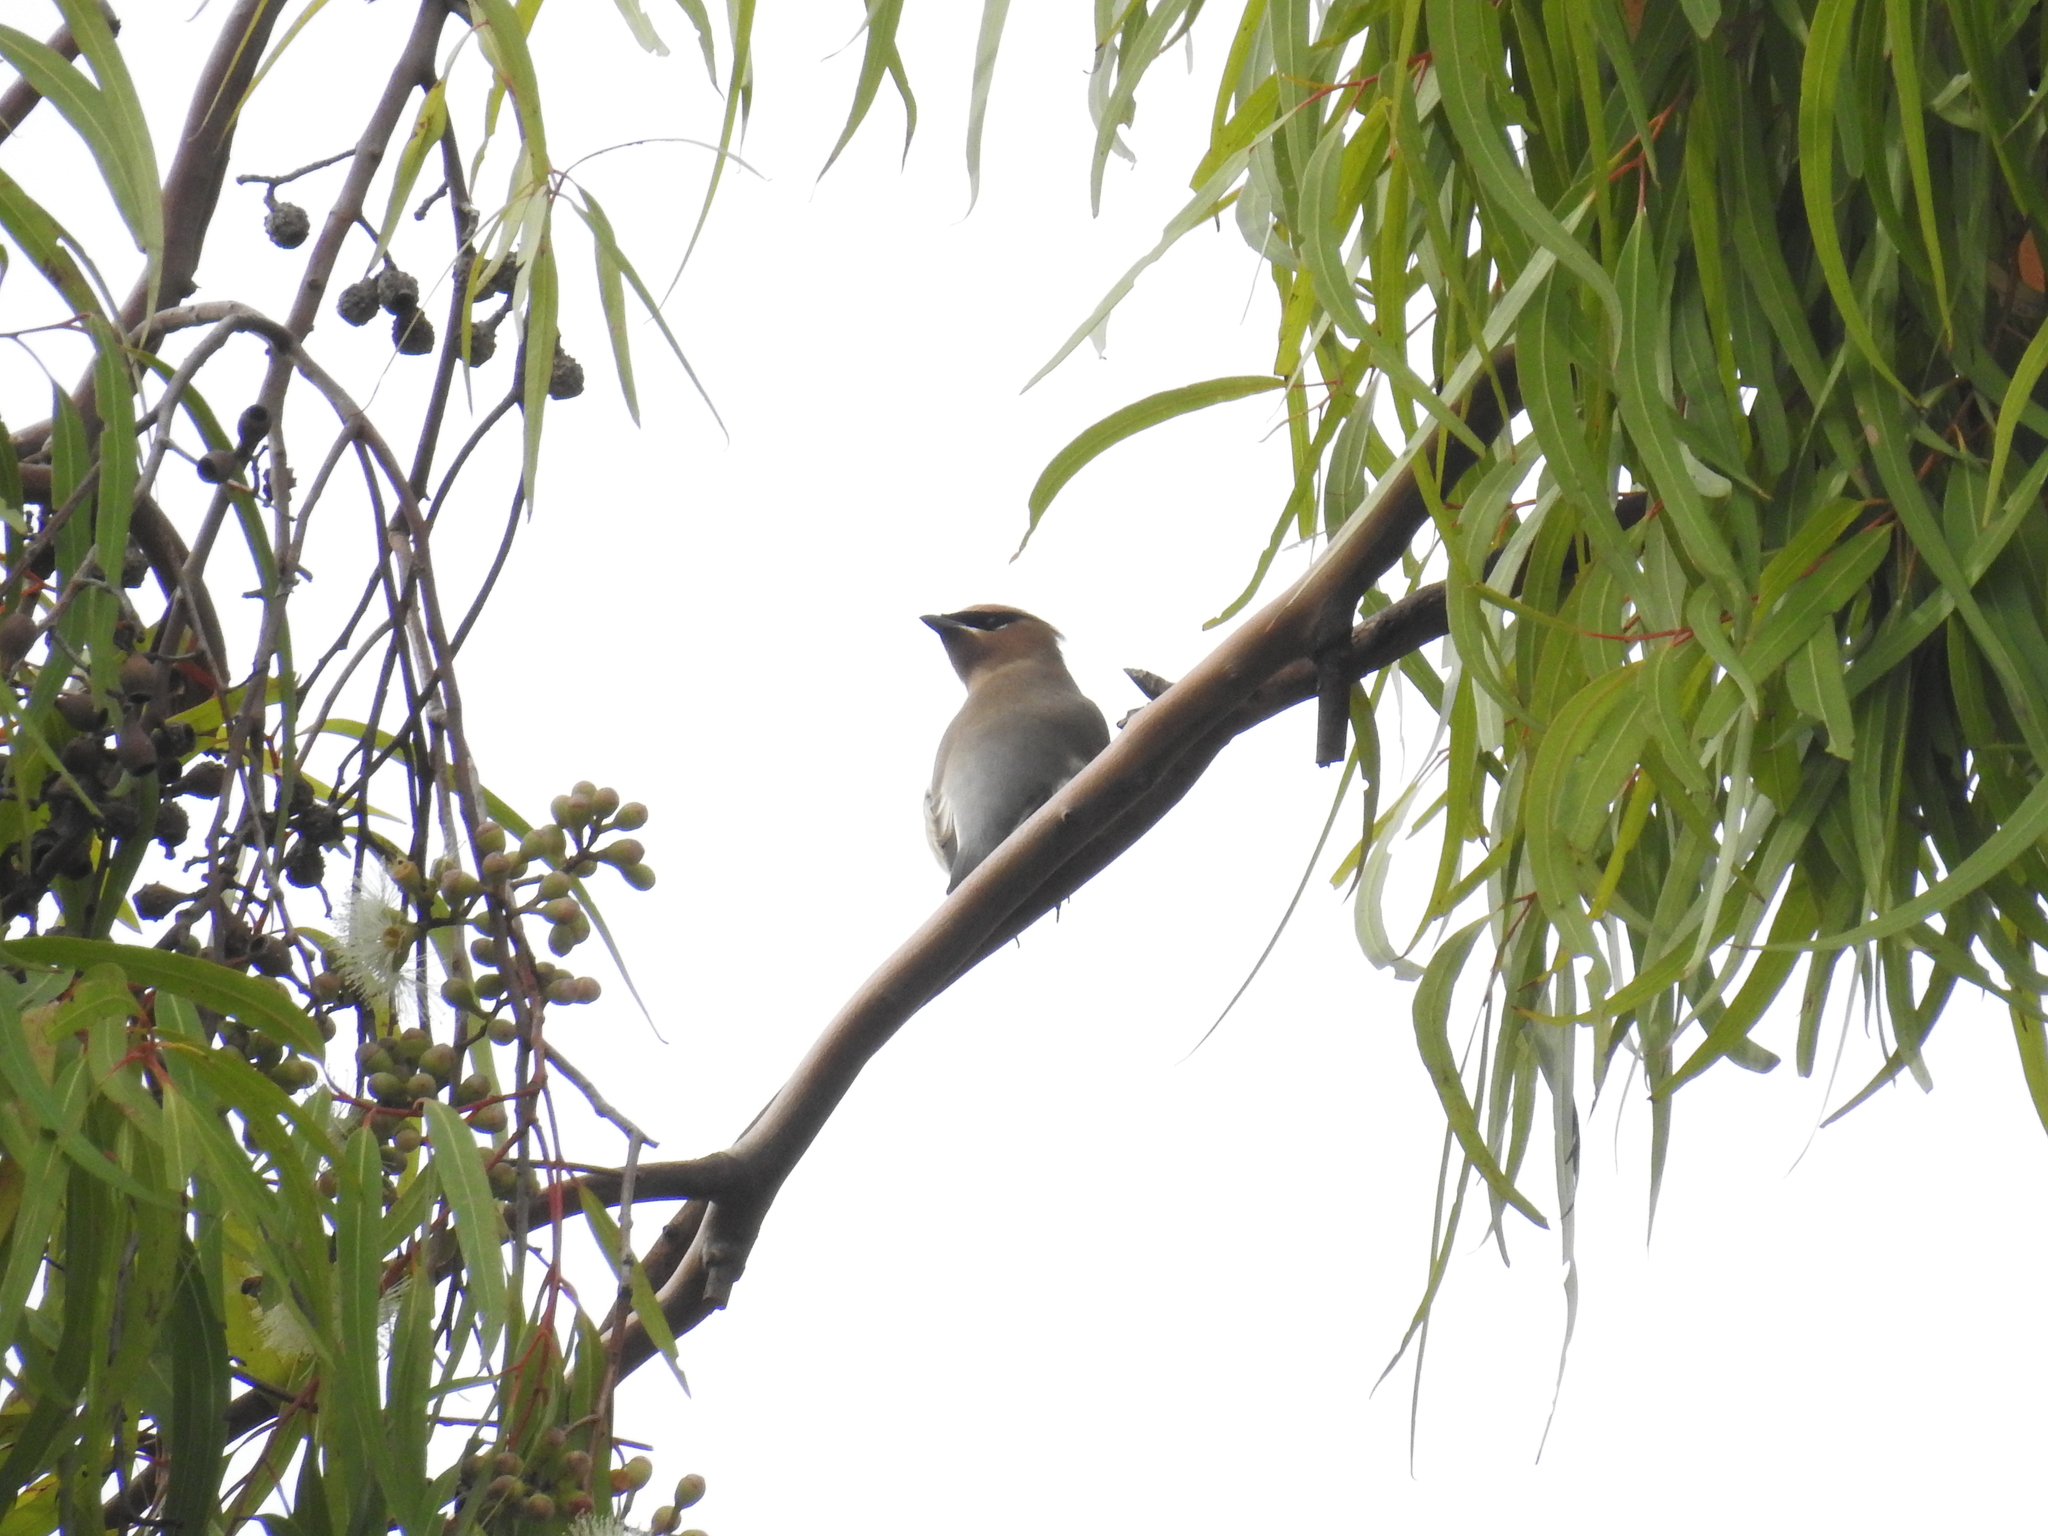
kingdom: Animalia
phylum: Chordata
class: Aves
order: Passeriformes
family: Bombycillidae
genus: Bombycilla
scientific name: Bombycilla cedrorum
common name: Cedar waxwing
